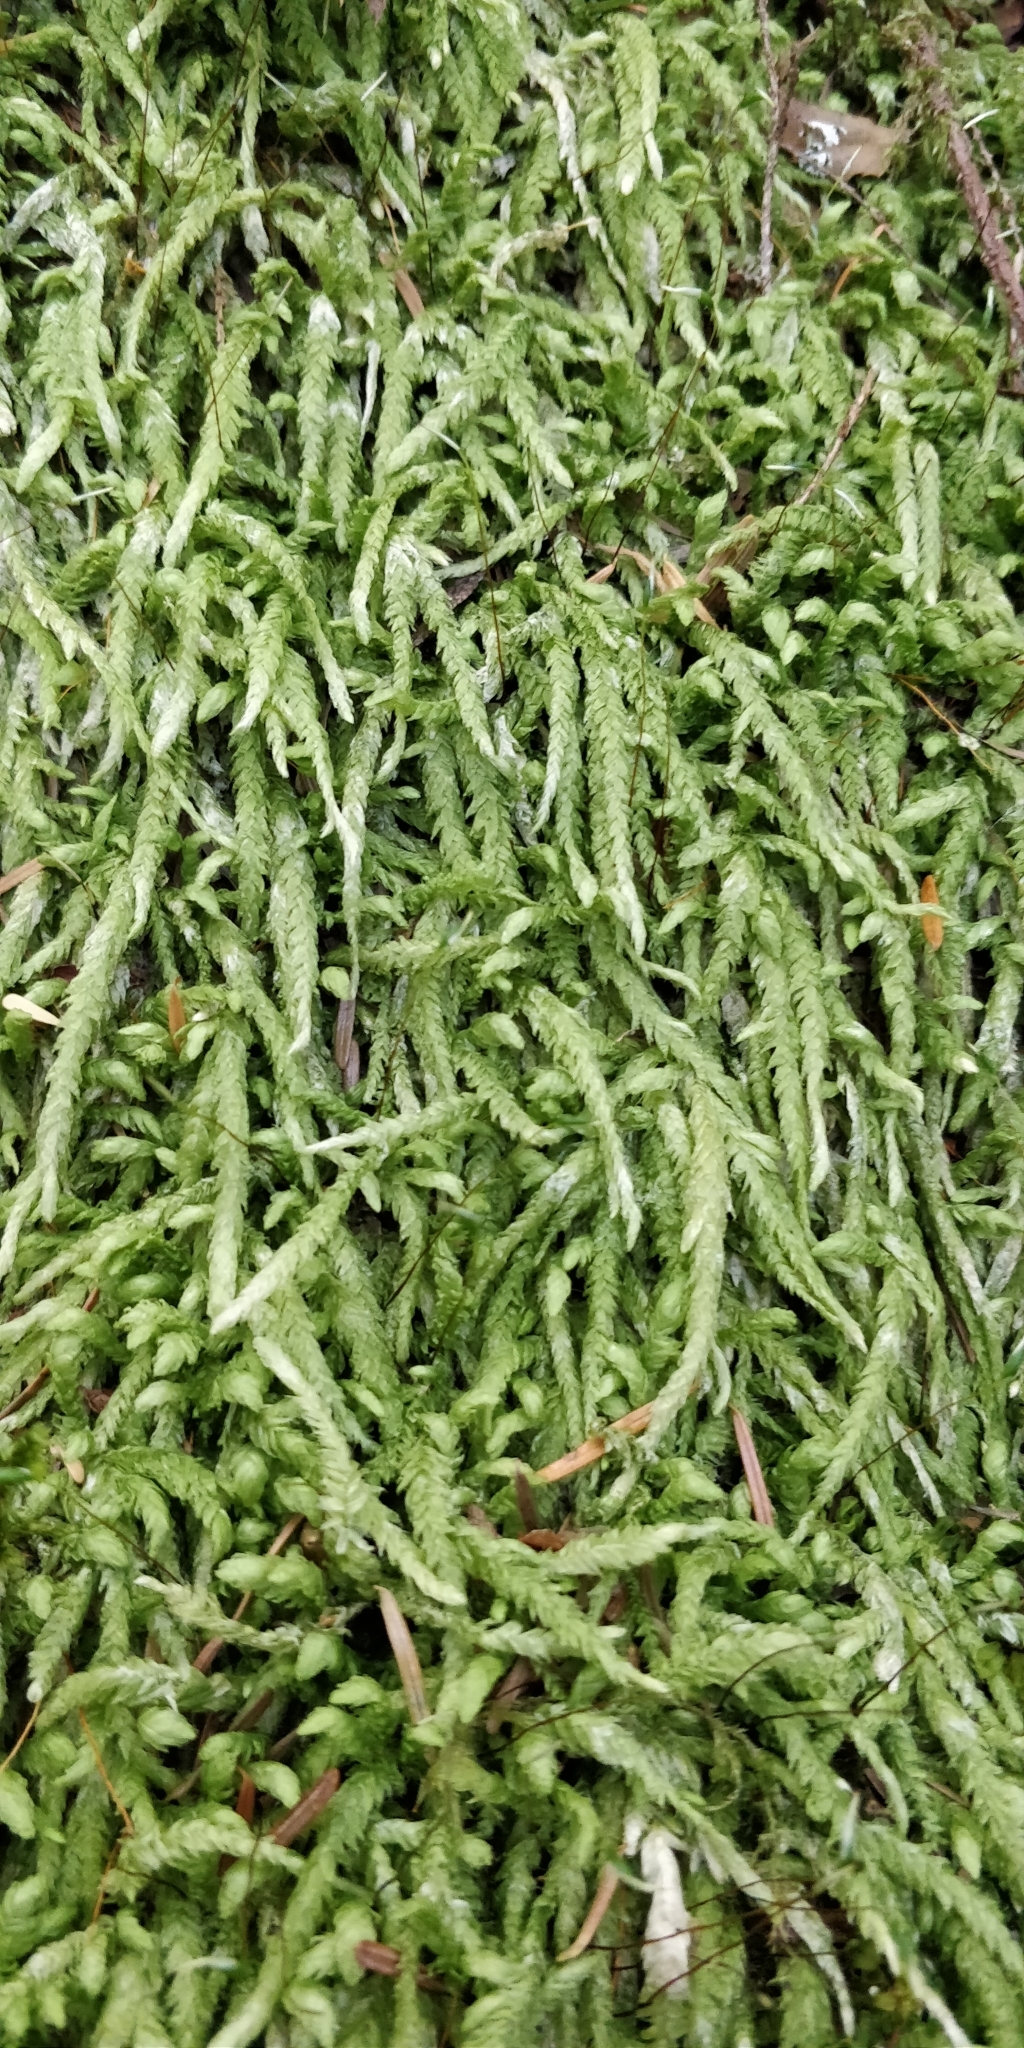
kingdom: Plantae
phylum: Bryophyta
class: Bryopsida
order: Hypnales
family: Plagiotheciaceae
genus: Plagiothecium
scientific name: Plagiothecium undulatum
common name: Waved silk-moss
